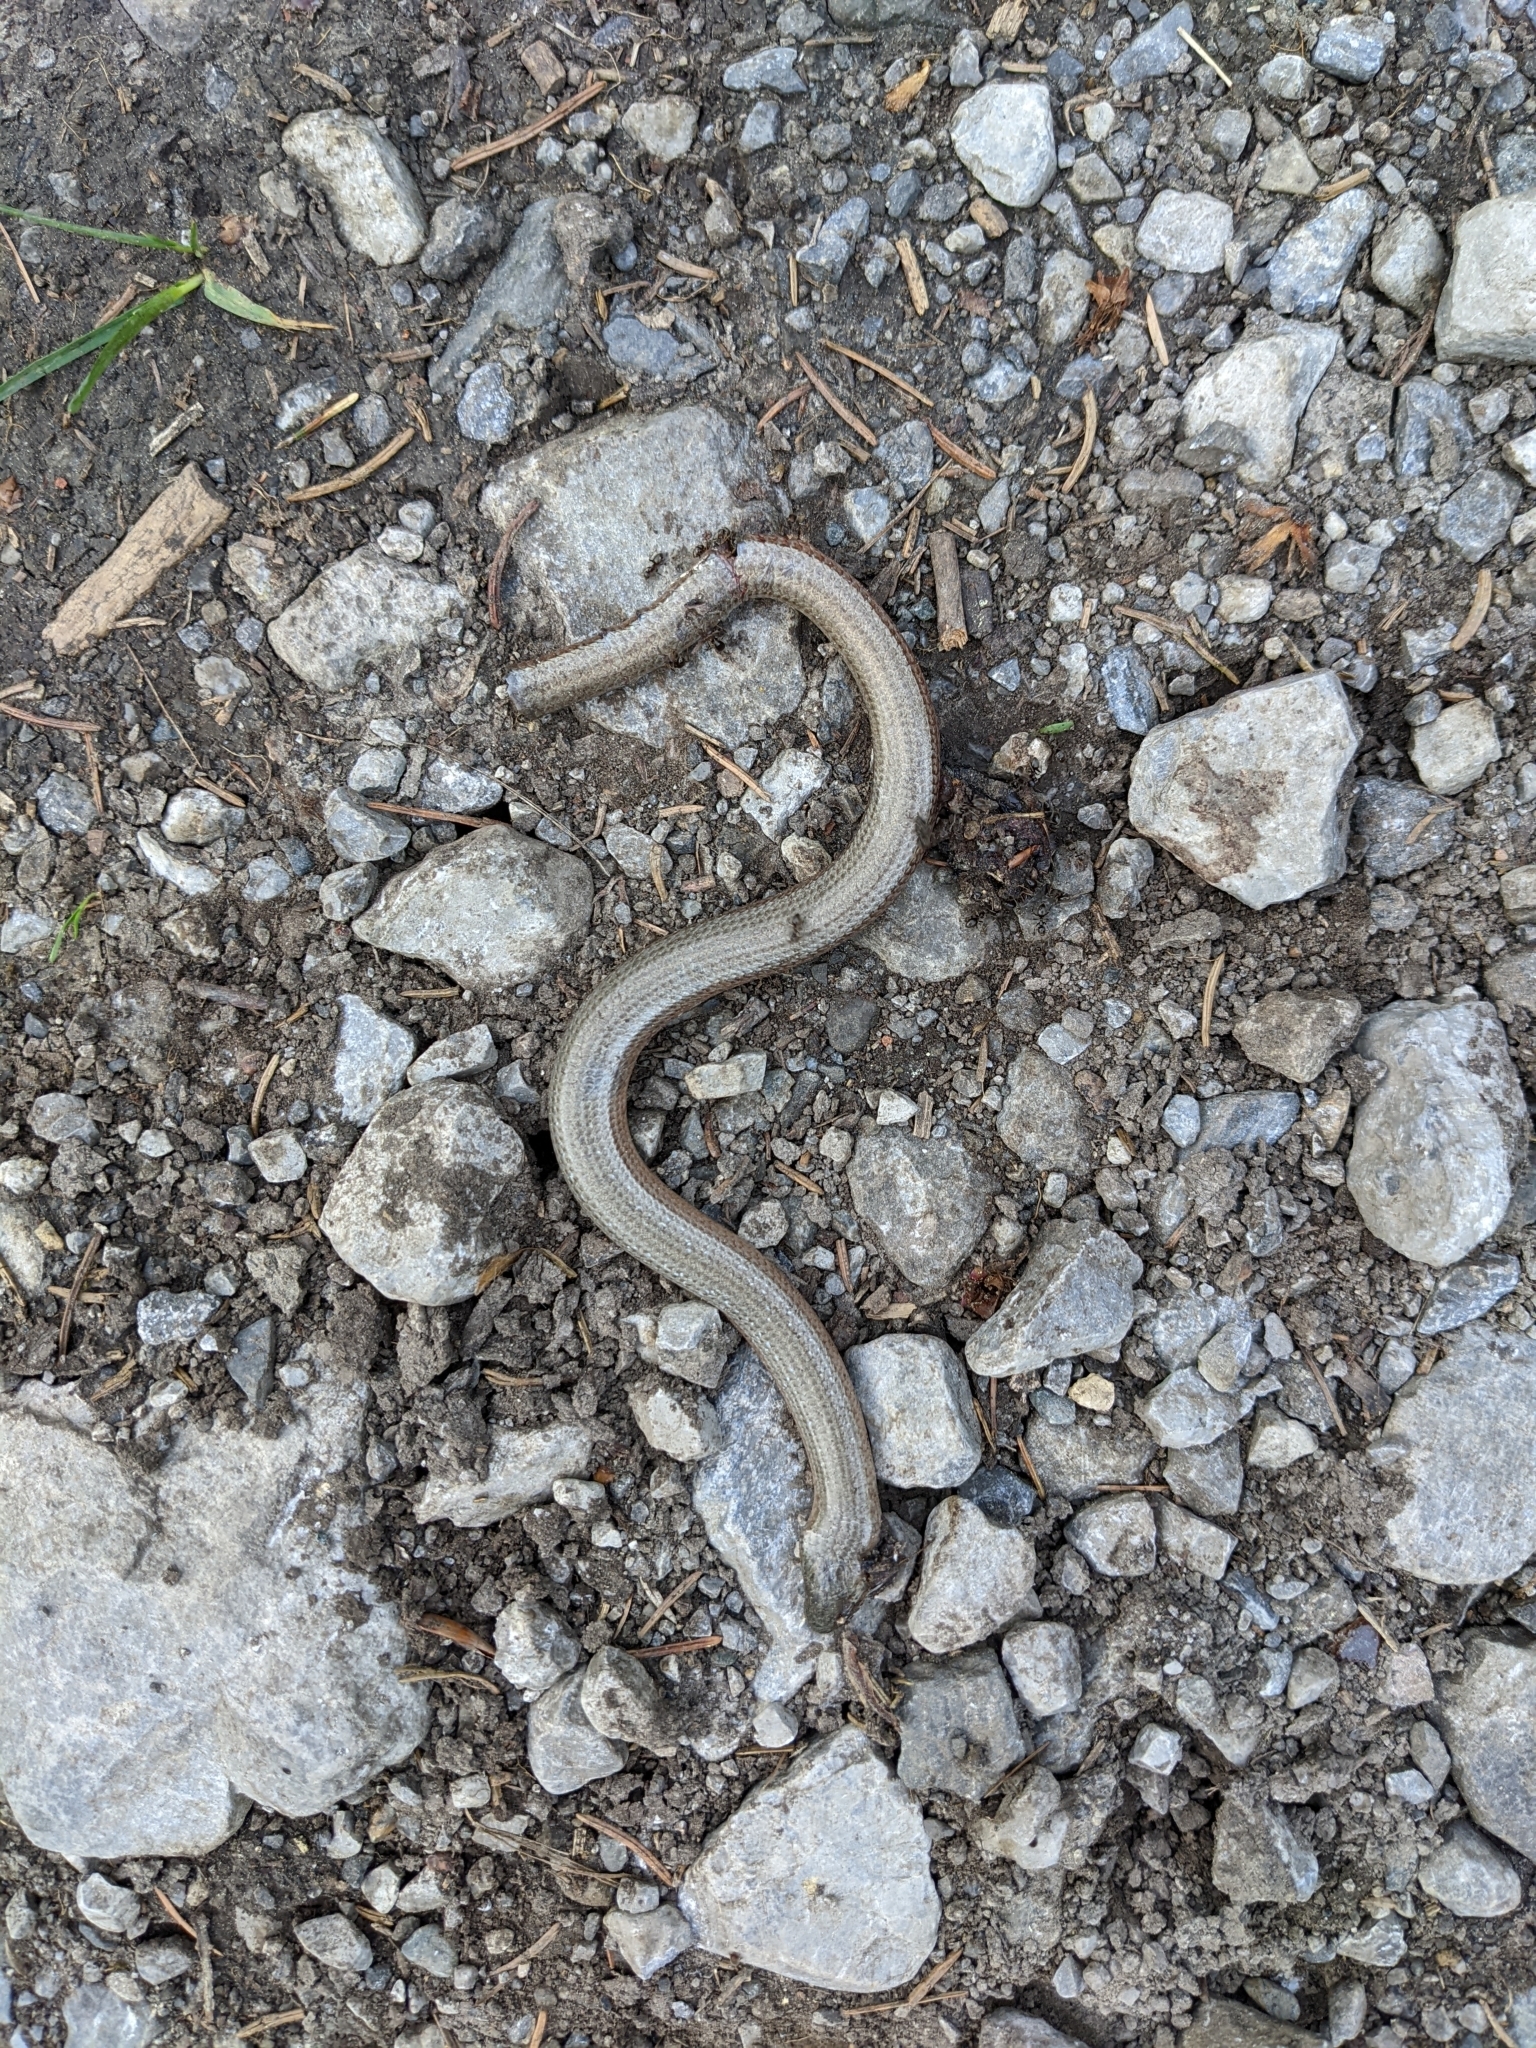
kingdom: Animalia
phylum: Chordata
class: Squamata
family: Anguidae
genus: Anguis
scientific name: Anguis fragilis
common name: Slow worm
